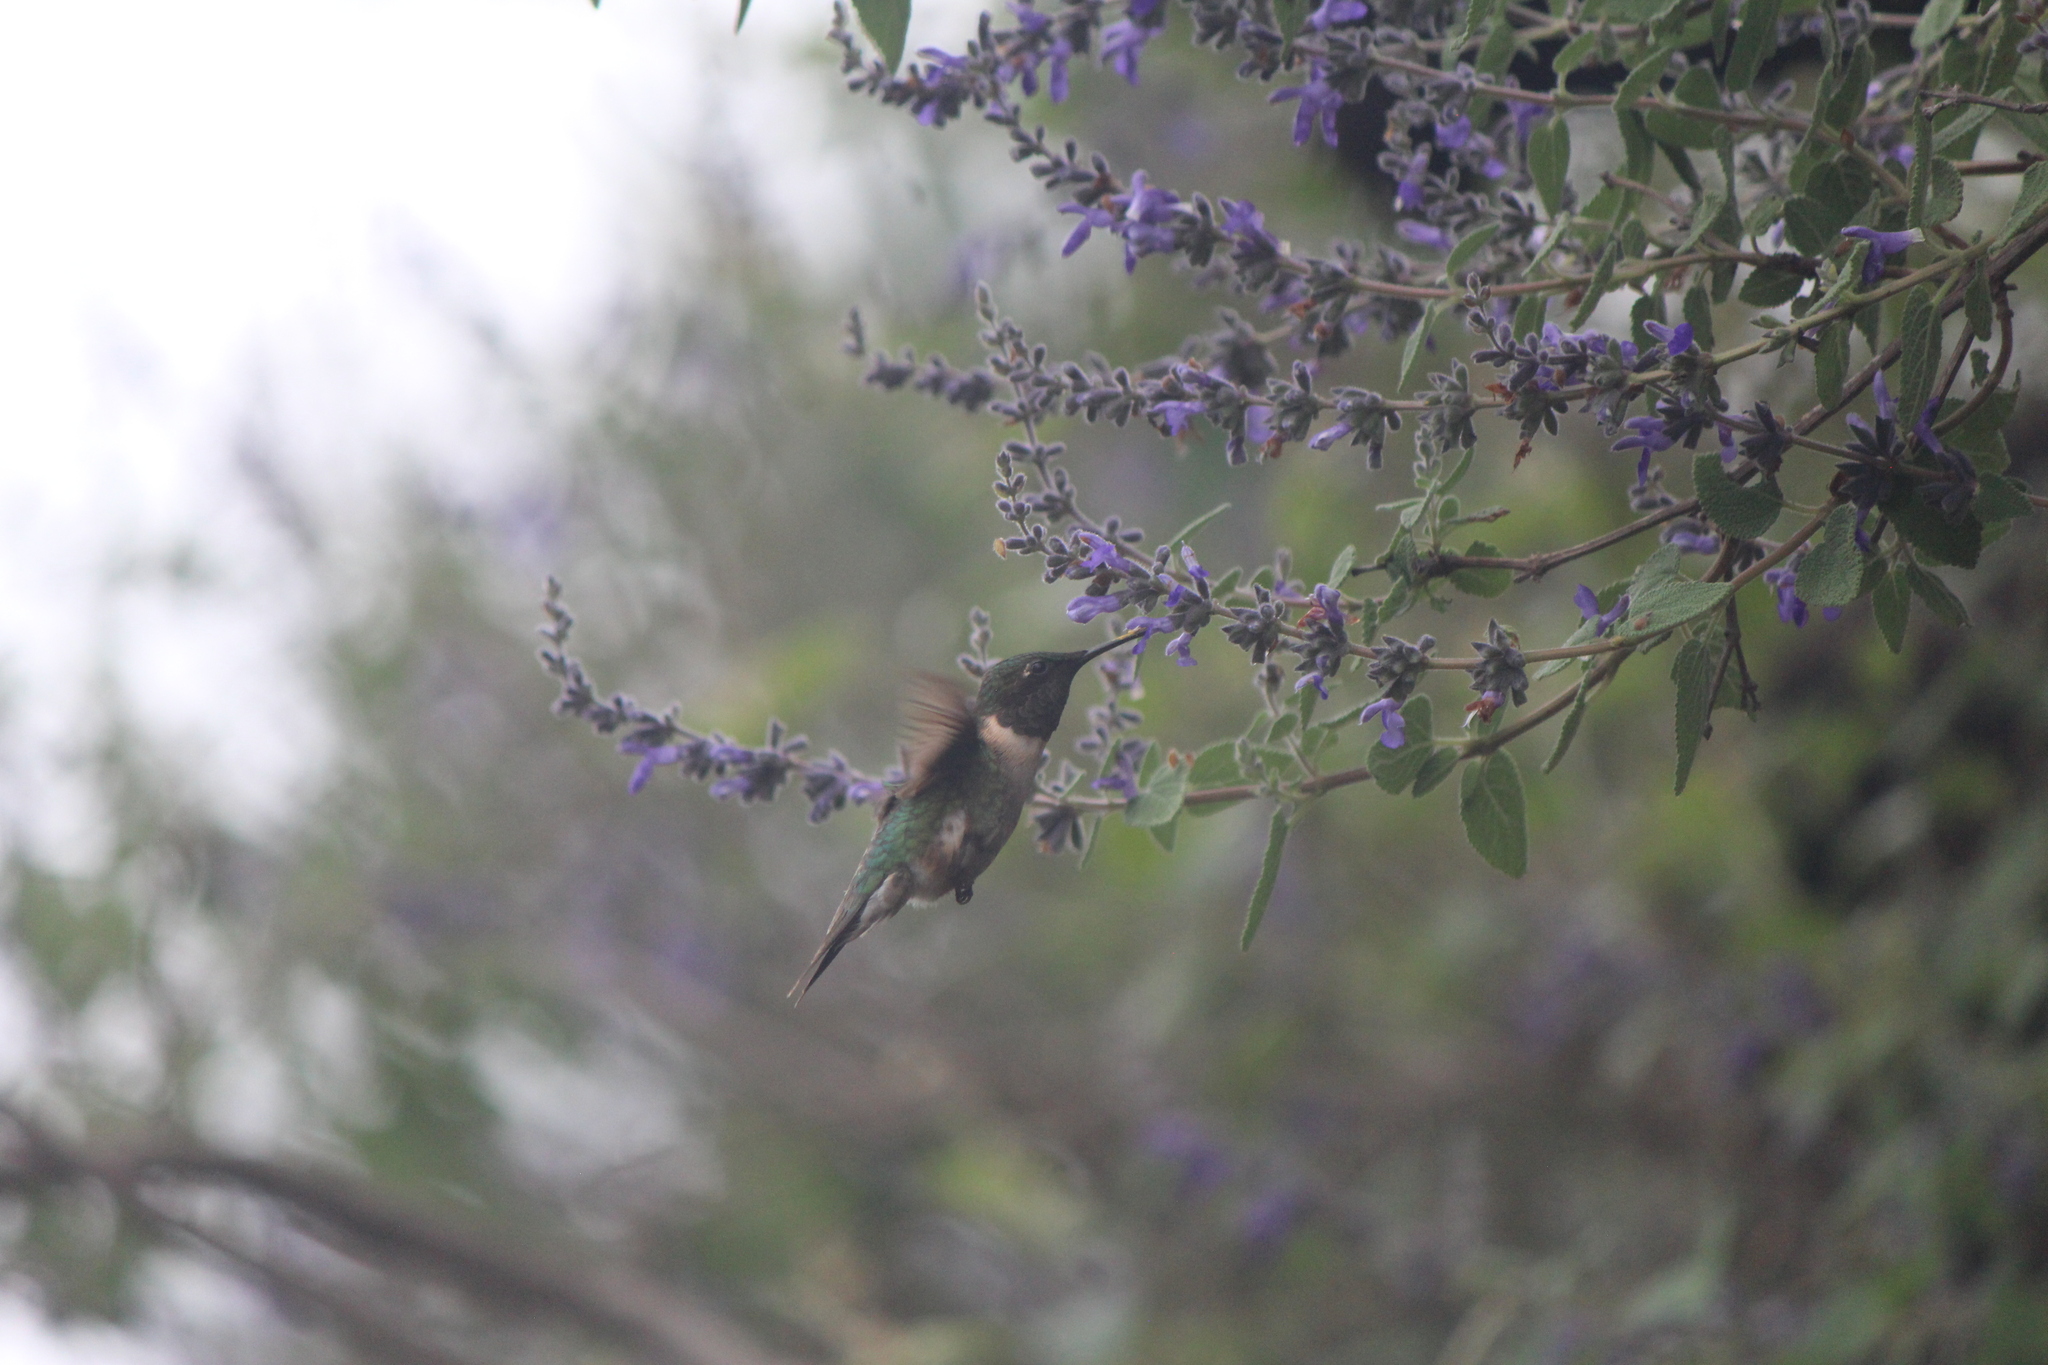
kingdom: Animalia
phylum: Chordata
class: Aves
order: Apodiformes
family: Trochilidae
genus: Archilochus
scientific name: Archilochus colubris
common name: Ruby-throated hummingbird
